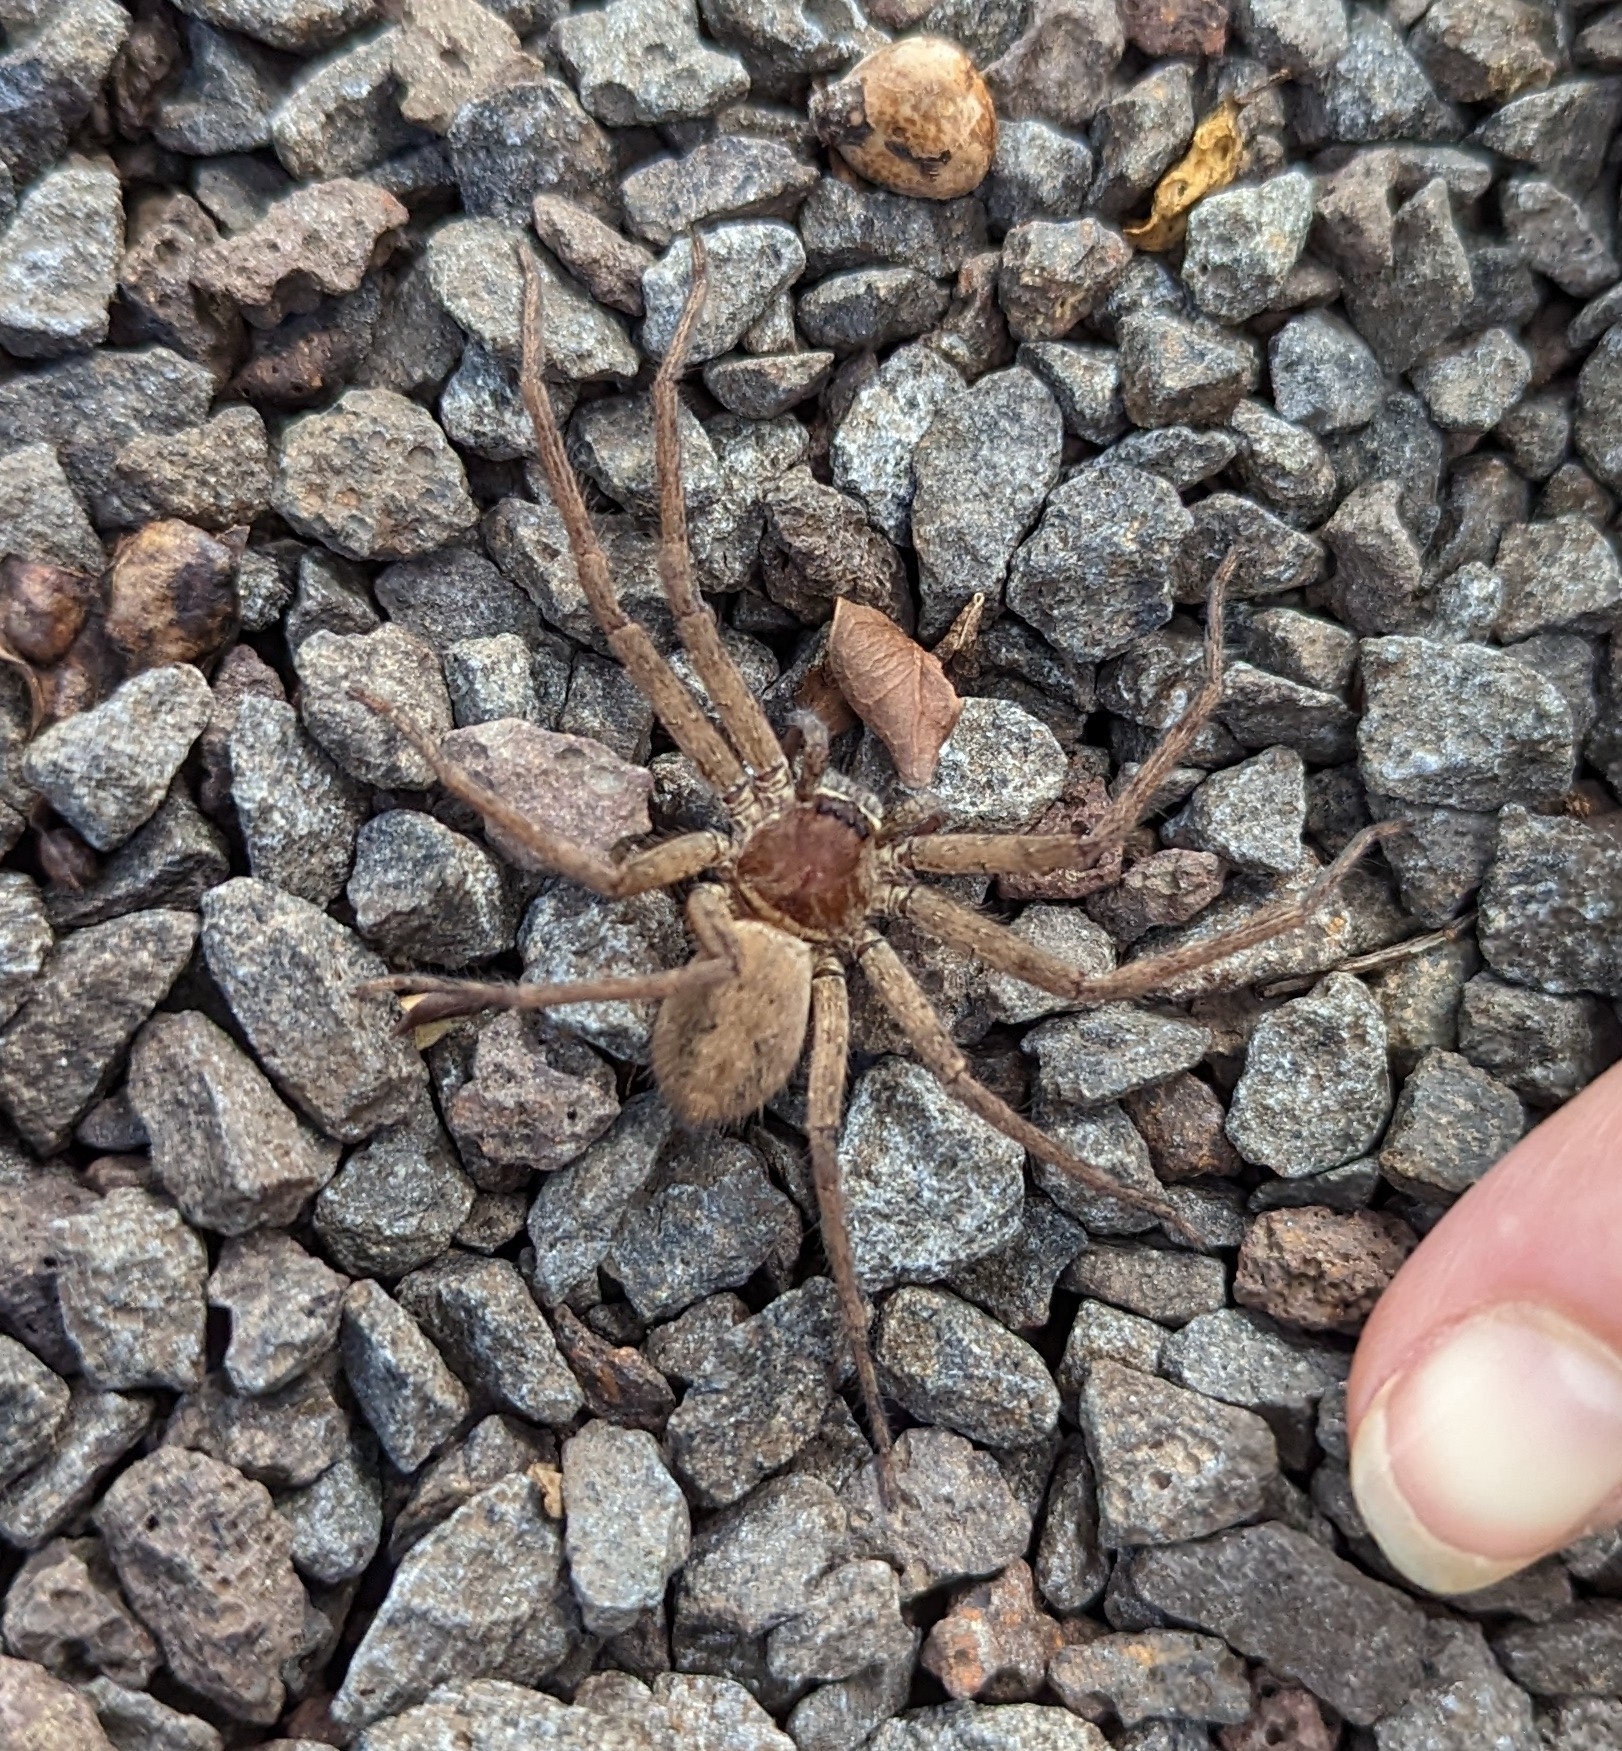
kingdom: Animalia
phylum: Arthropoda
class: Arachnida
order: Araneae
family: Sparassidae
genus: Heteropoda
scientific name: Heteropoda venatoria
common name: Huntsman spider
